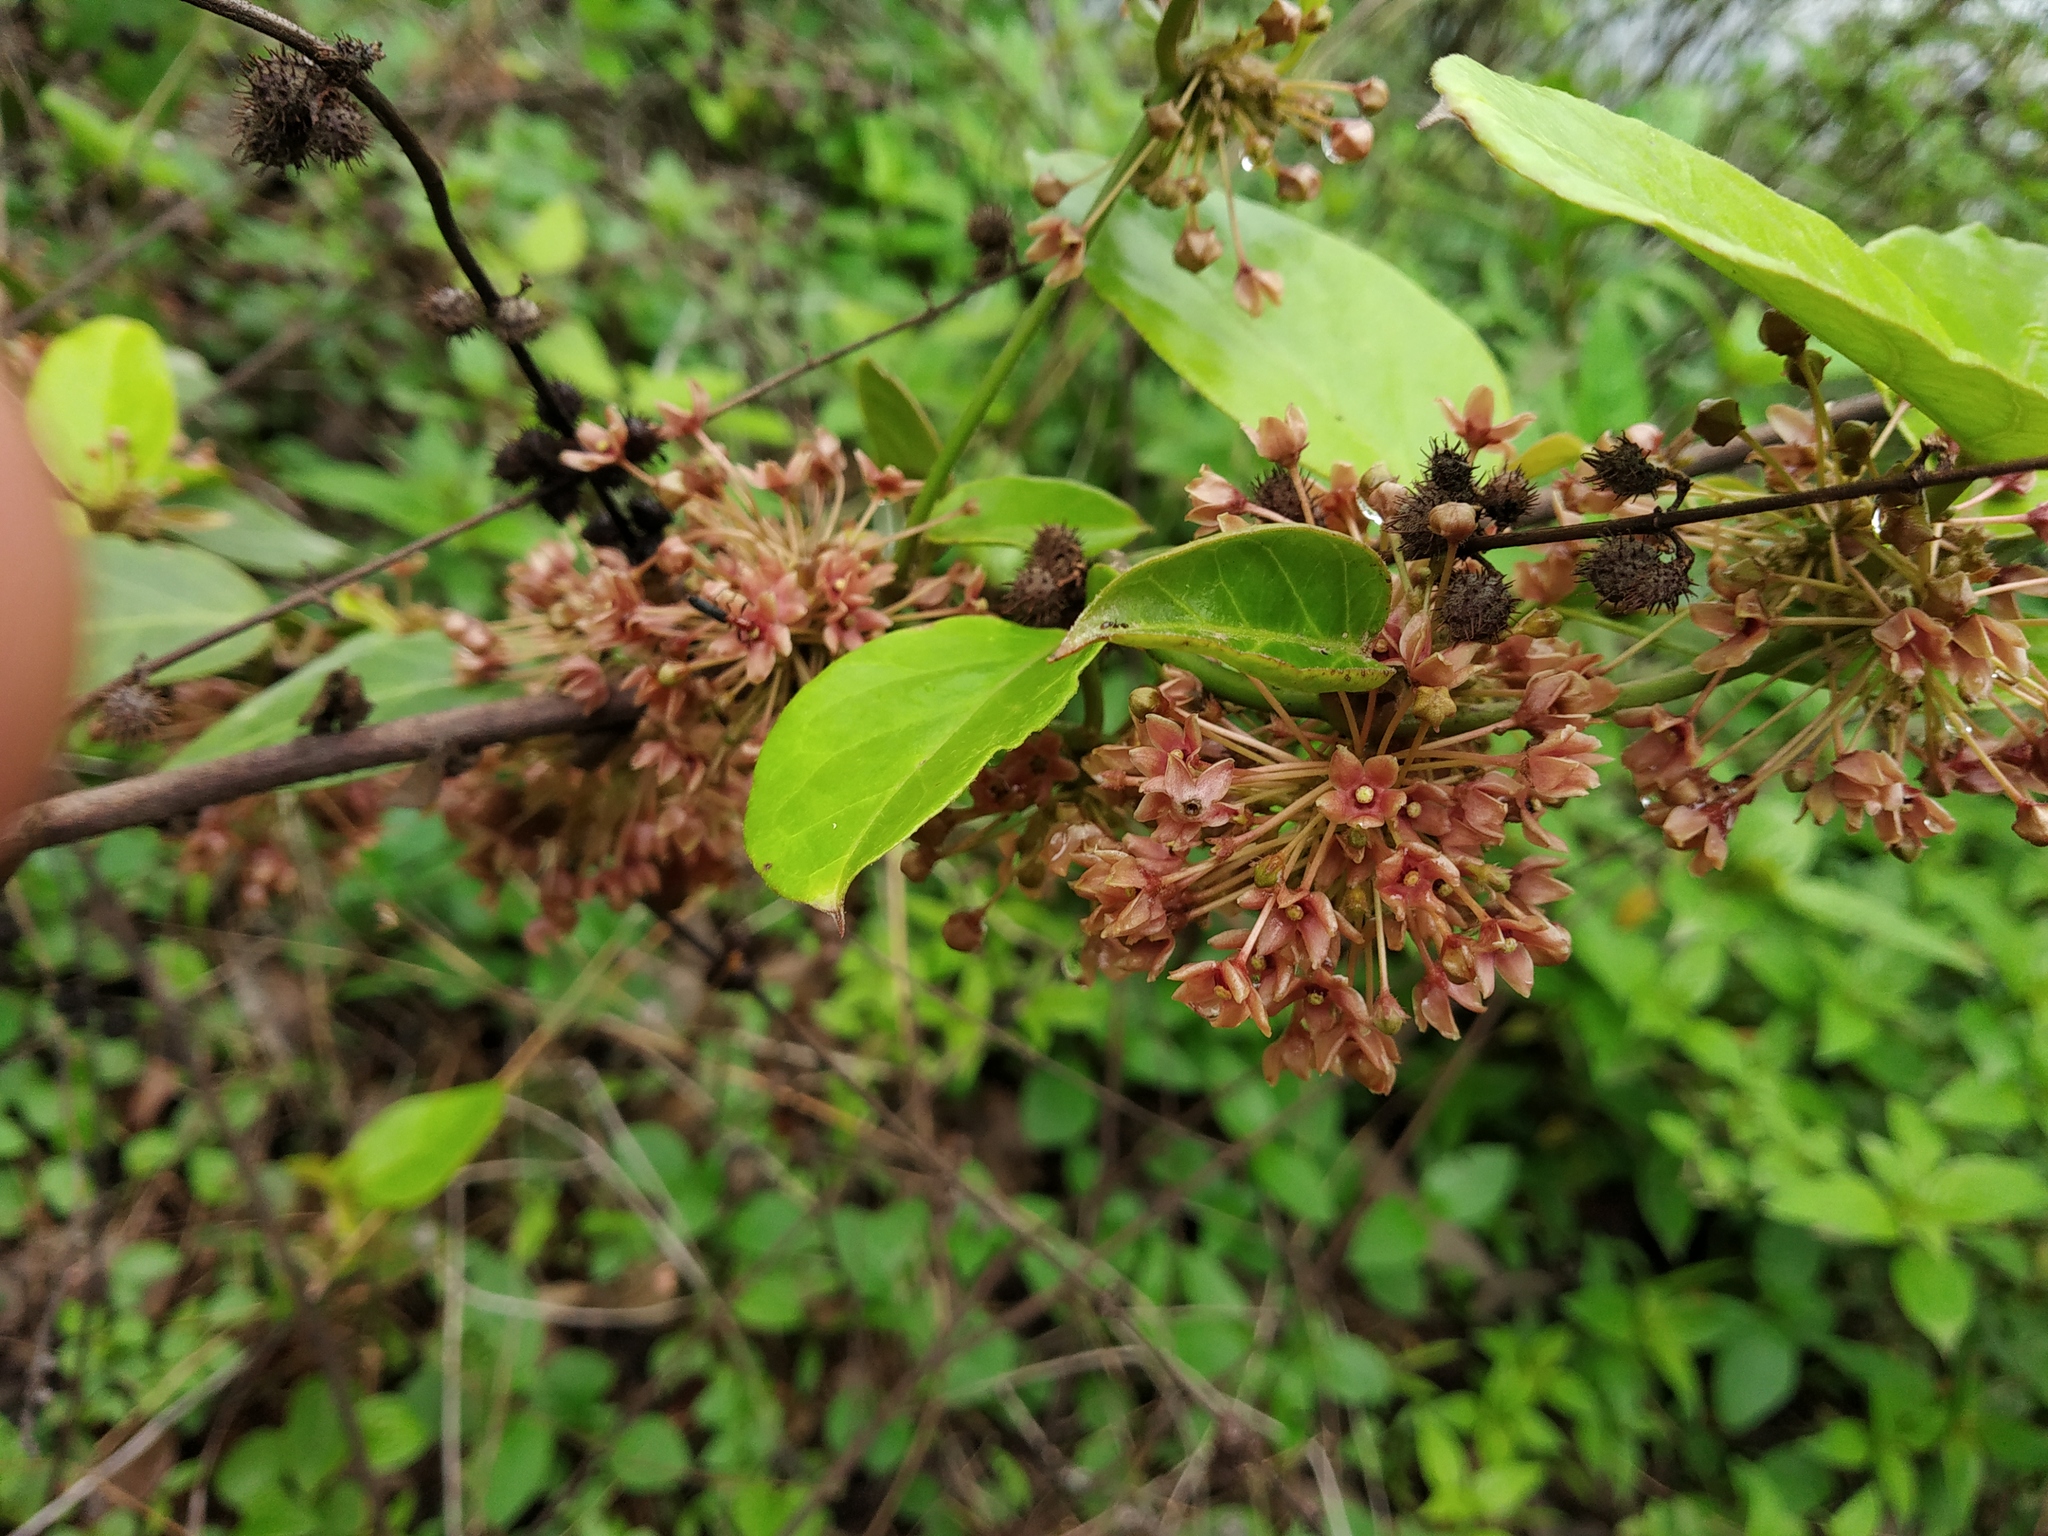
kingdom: Plantae
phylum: Tracheophyta
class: Magnoliopsida
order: Gentianales
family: Apocynaceae
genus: Vincetoxicum
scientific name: Vincetoxicum dalzellii
